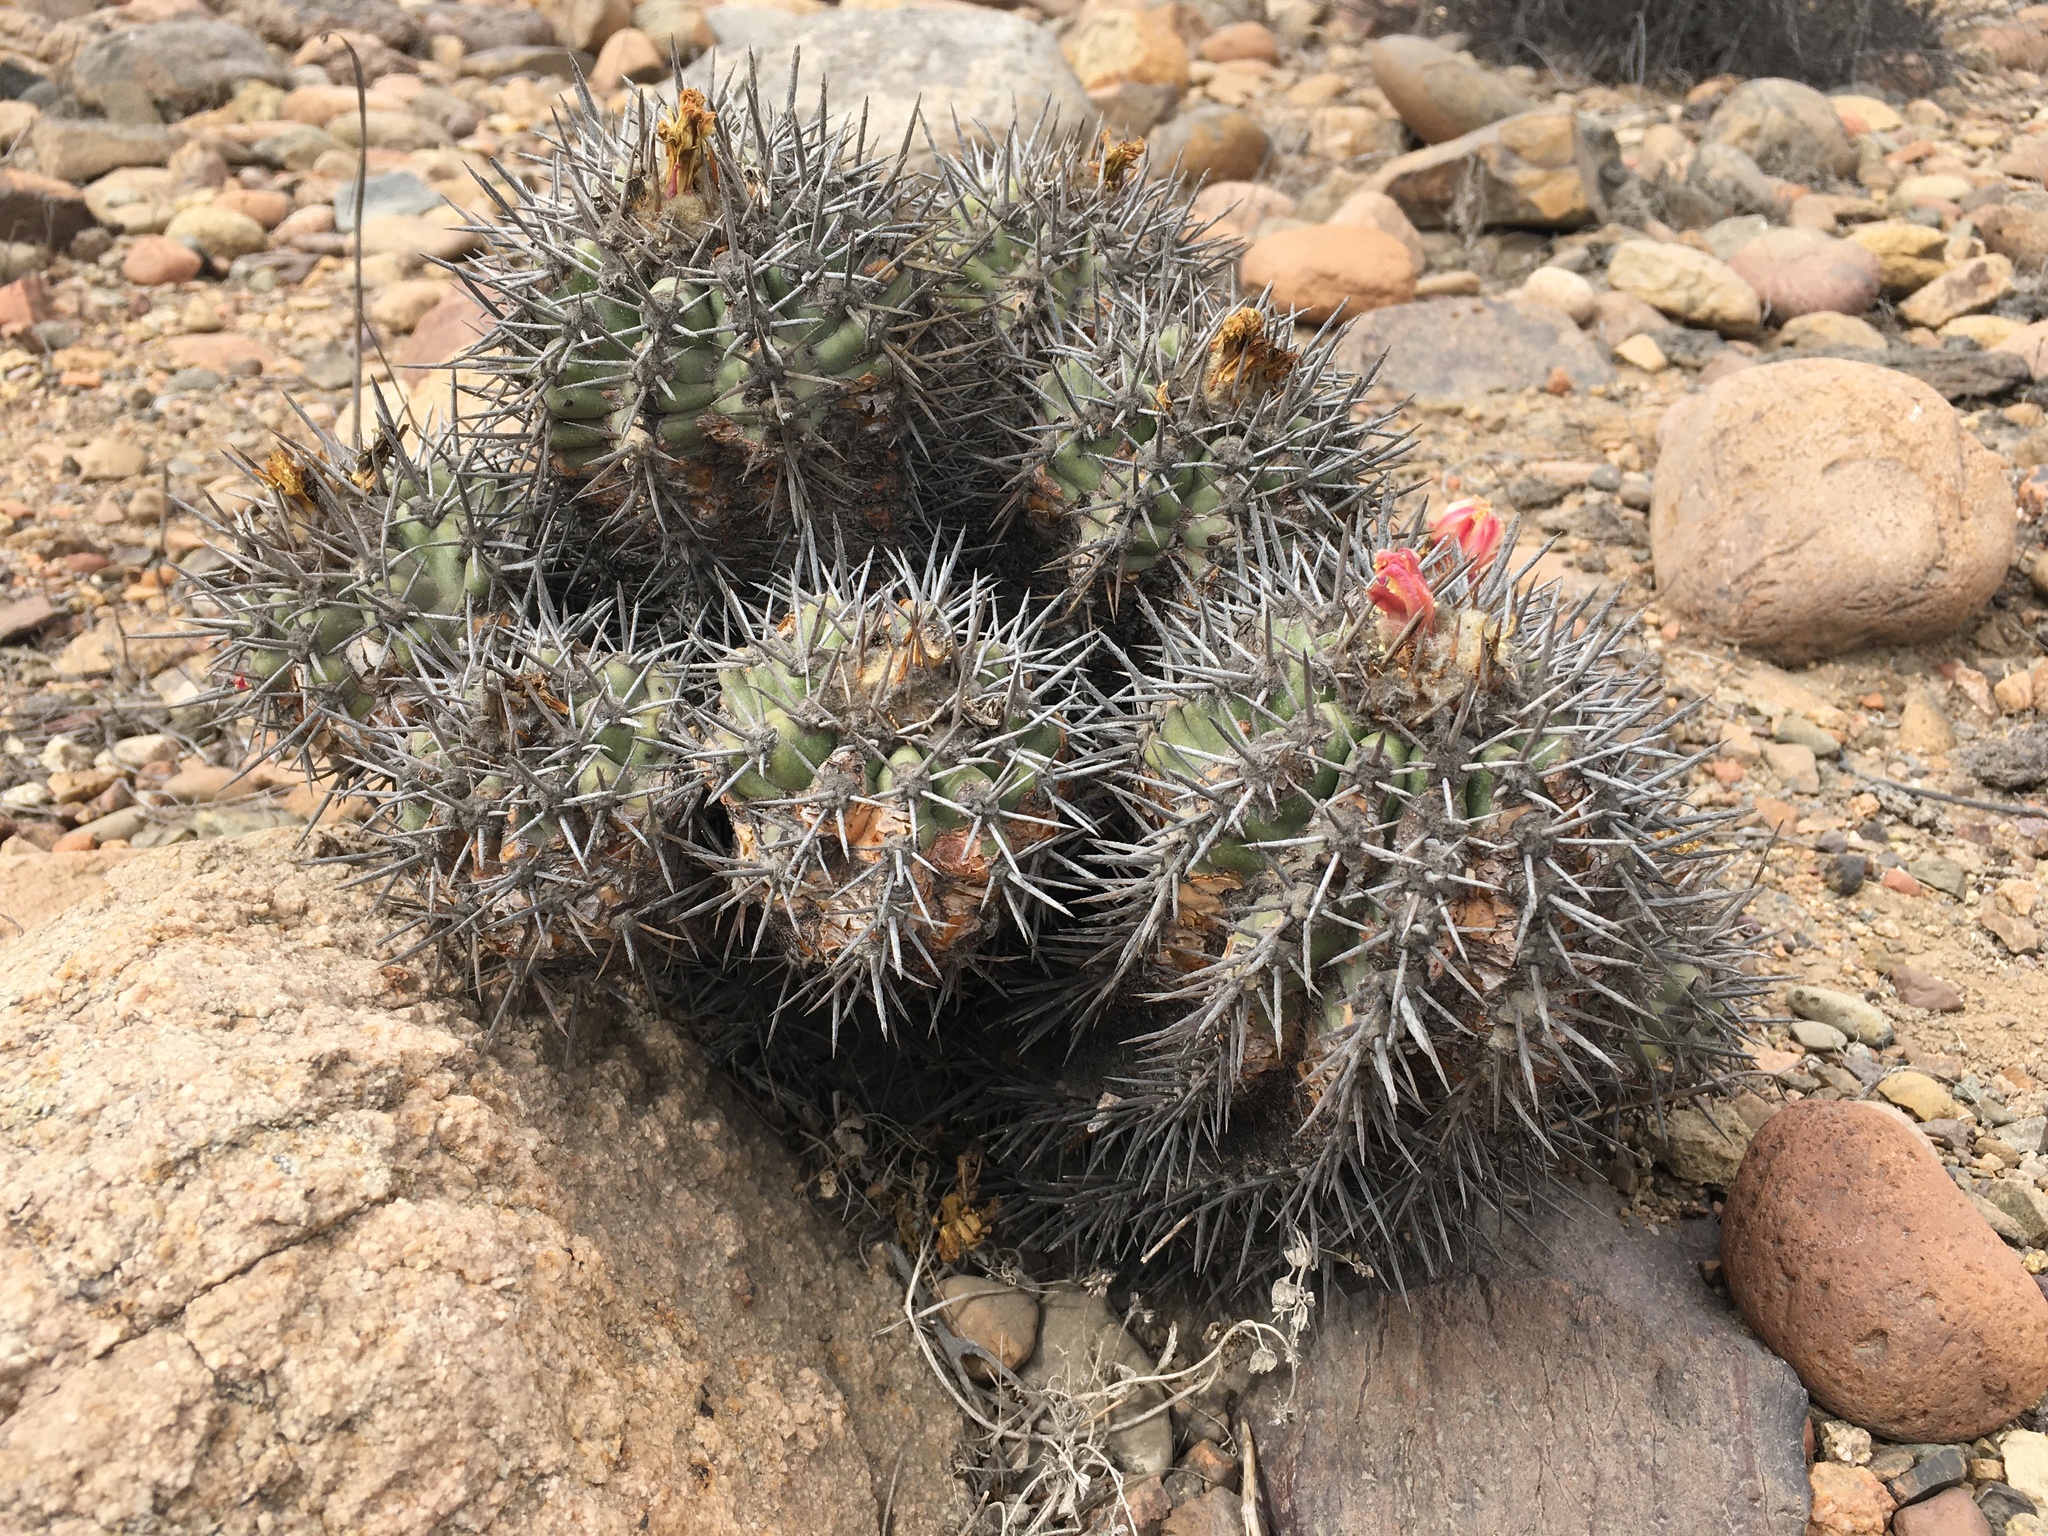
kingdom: Plantae
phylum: Tracheophyta
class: Magnoliopsida
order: Caryophyllales
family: Cactaceae
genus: Copiapoa
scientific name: Copiapoa coquimbana
